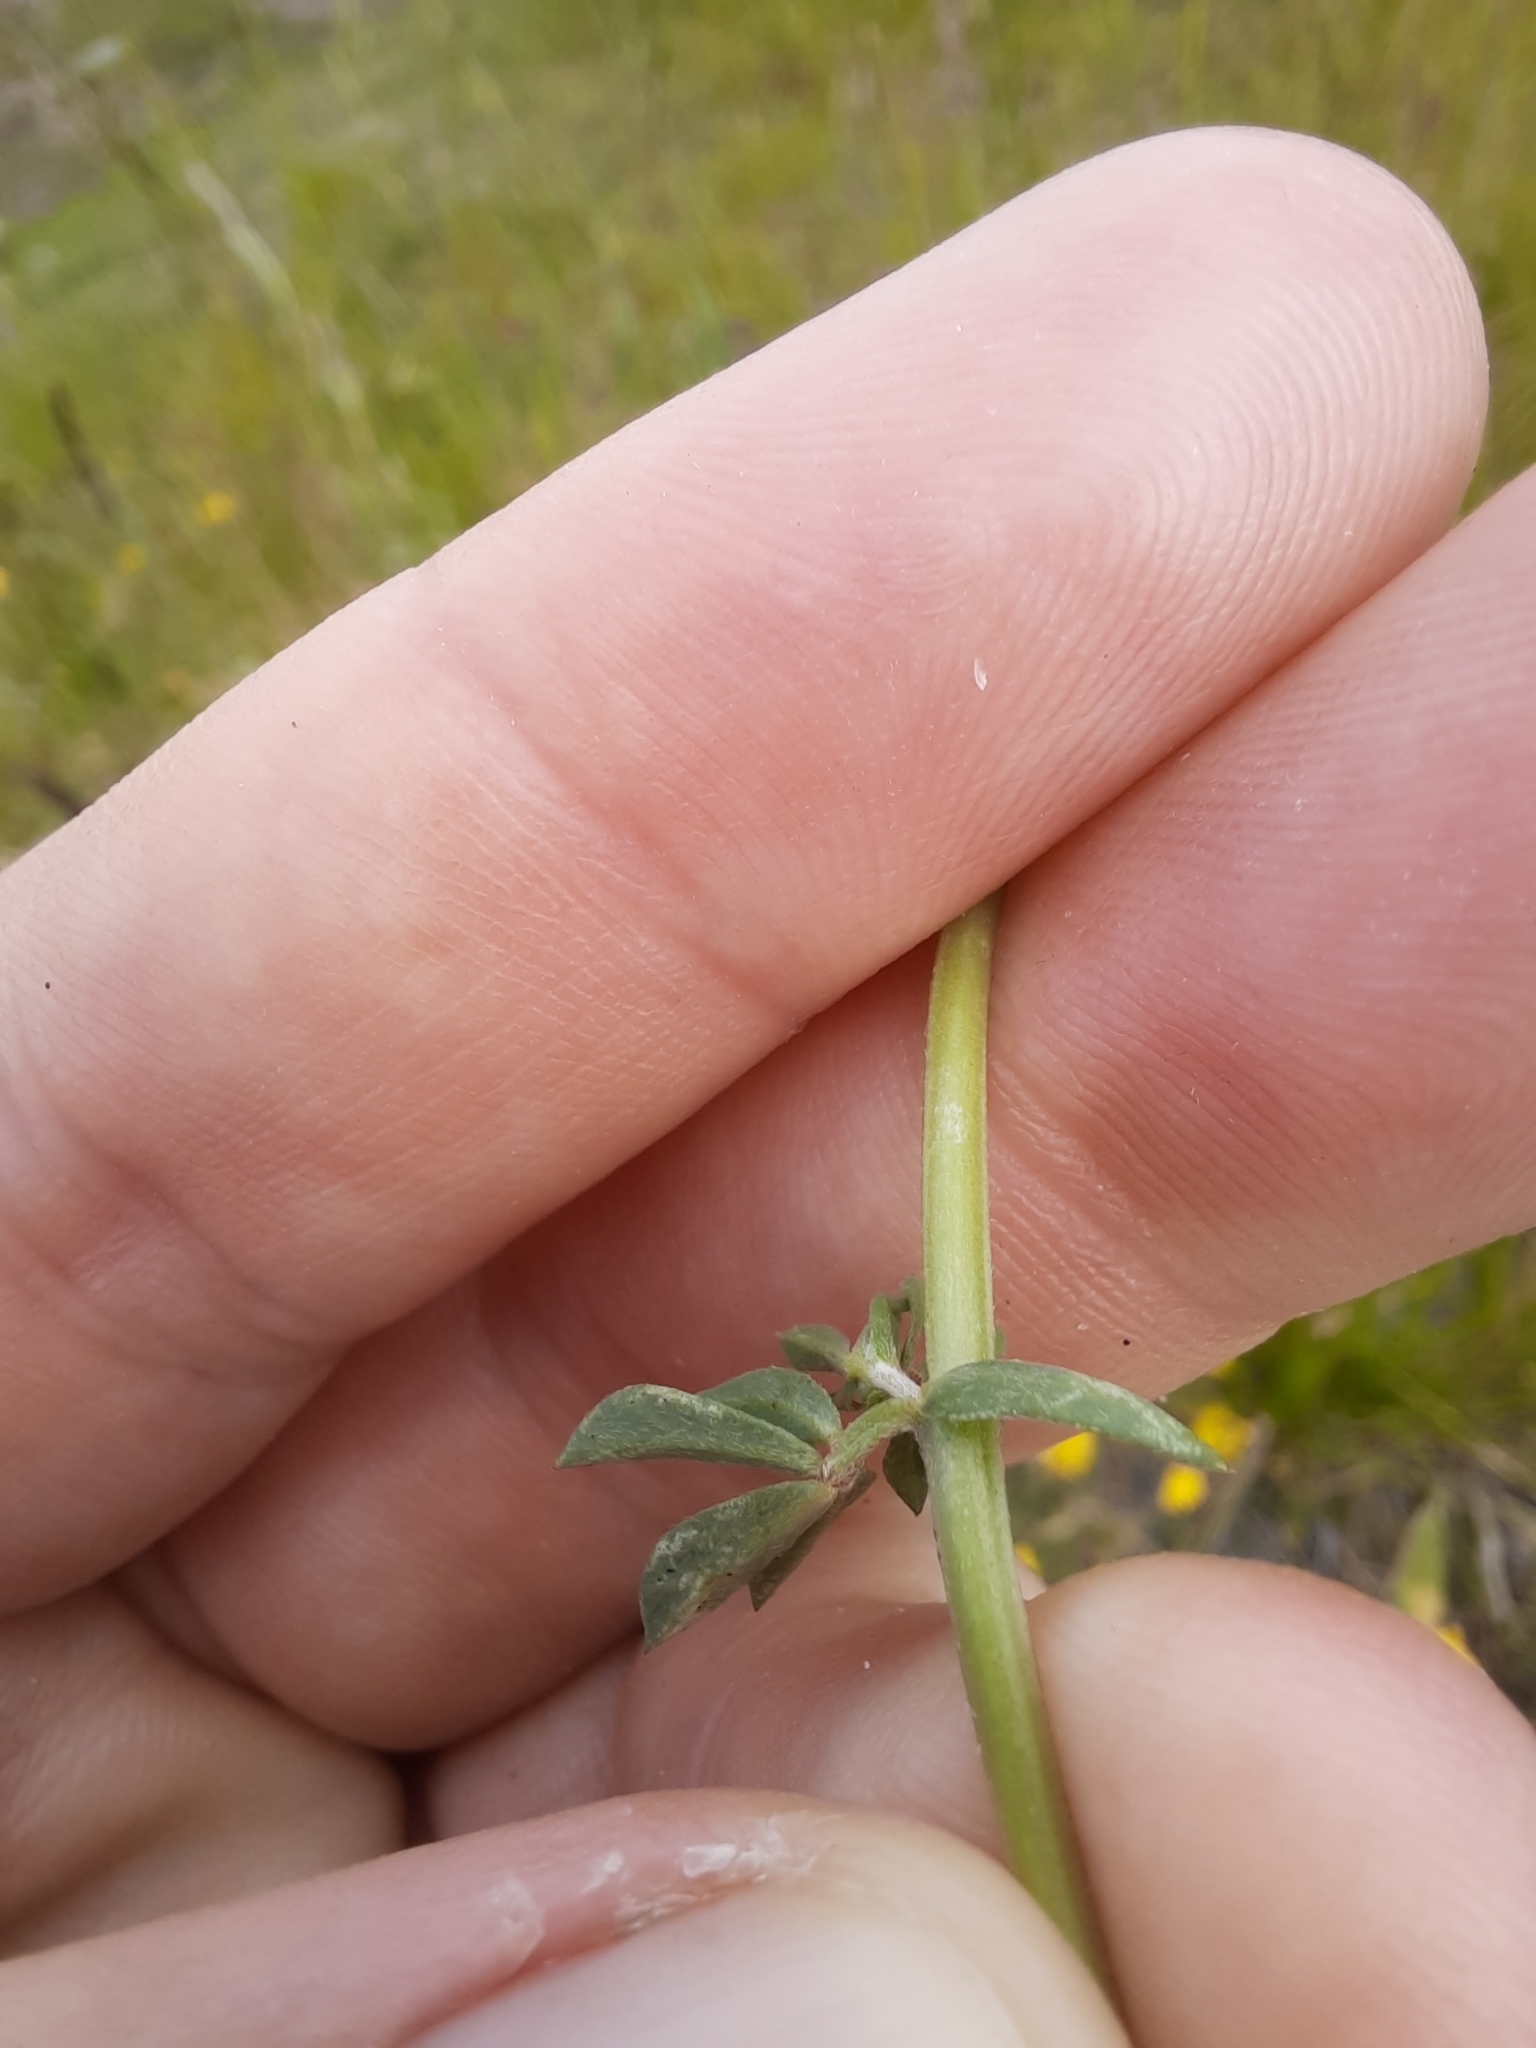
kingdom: Plantae
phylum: Tracheophyta
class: Magnoliopsida
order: Fabales
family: Fabaceae
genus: Lotus
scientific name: Lotus tenuis
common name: Narrow-leaved bird's-foot-trefoil
